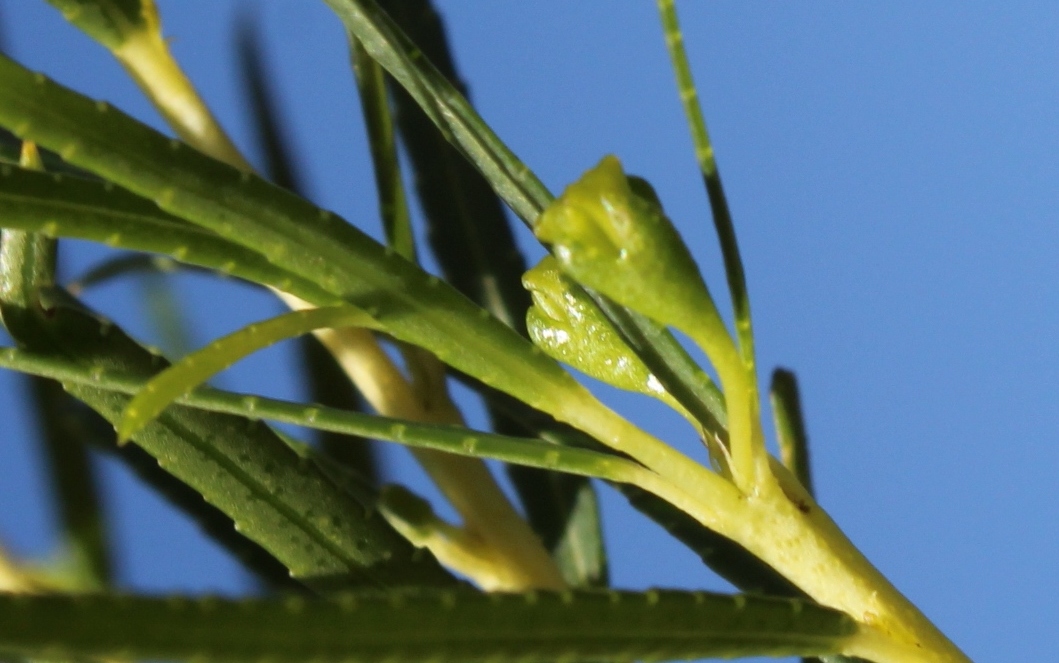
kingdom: Plantae
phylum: Tracheophyta
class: Magnoliopsida
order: Sapindales
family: Rutaceae
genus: Empleurum
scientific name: Empleurum unicapsulare
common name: False buchu
